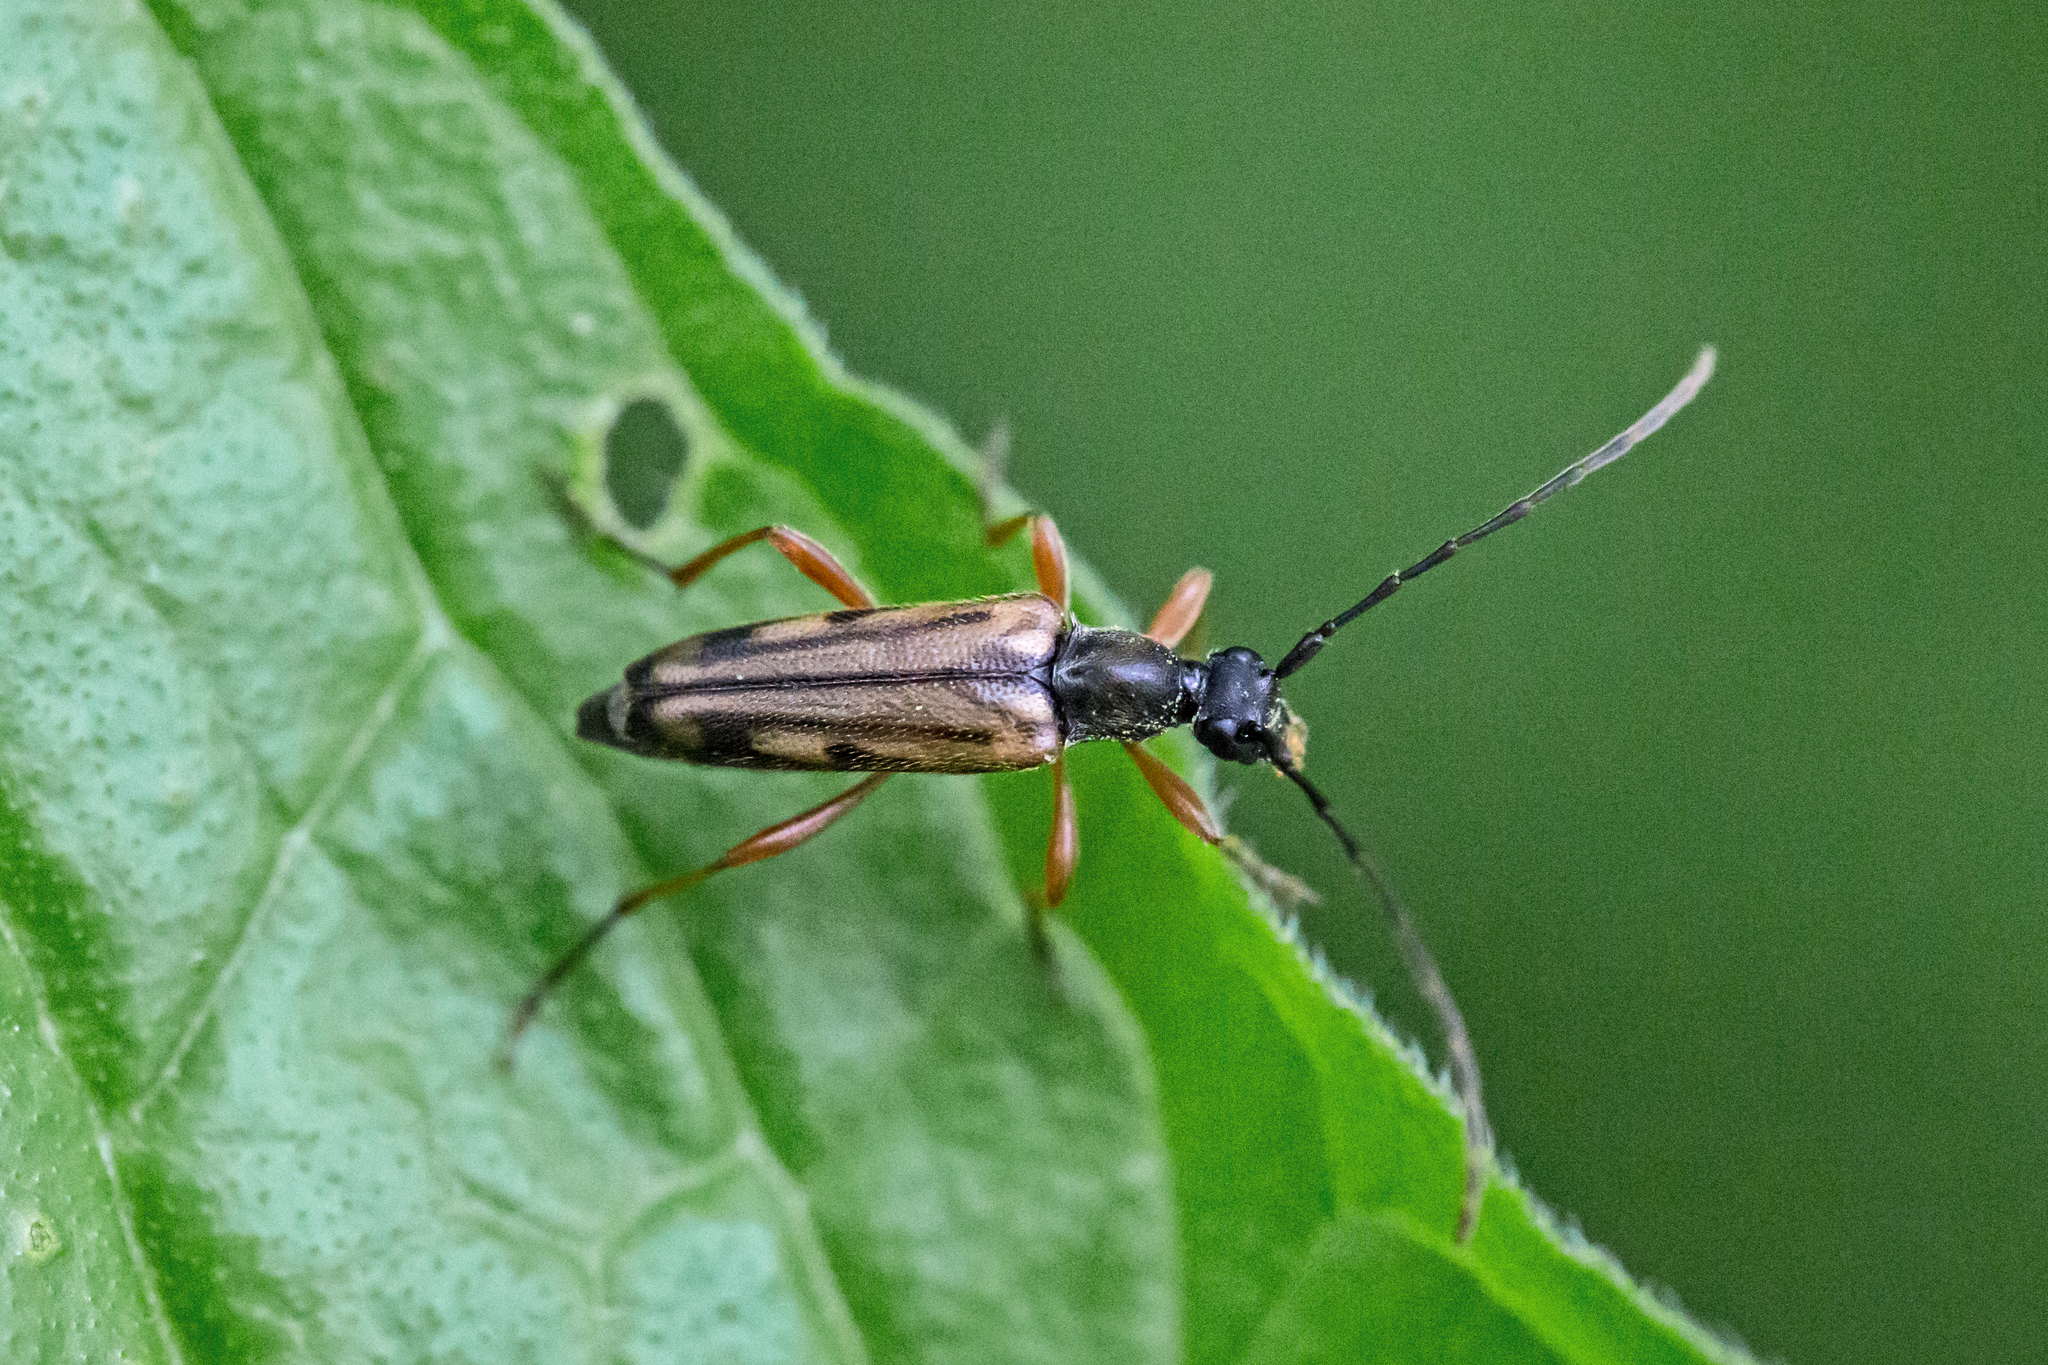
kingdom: Animalia
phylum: Arthropoda
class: Insecta
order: Coleoptera
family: Cerambycidae
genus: Analeptura
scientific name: Analeptura lineola
